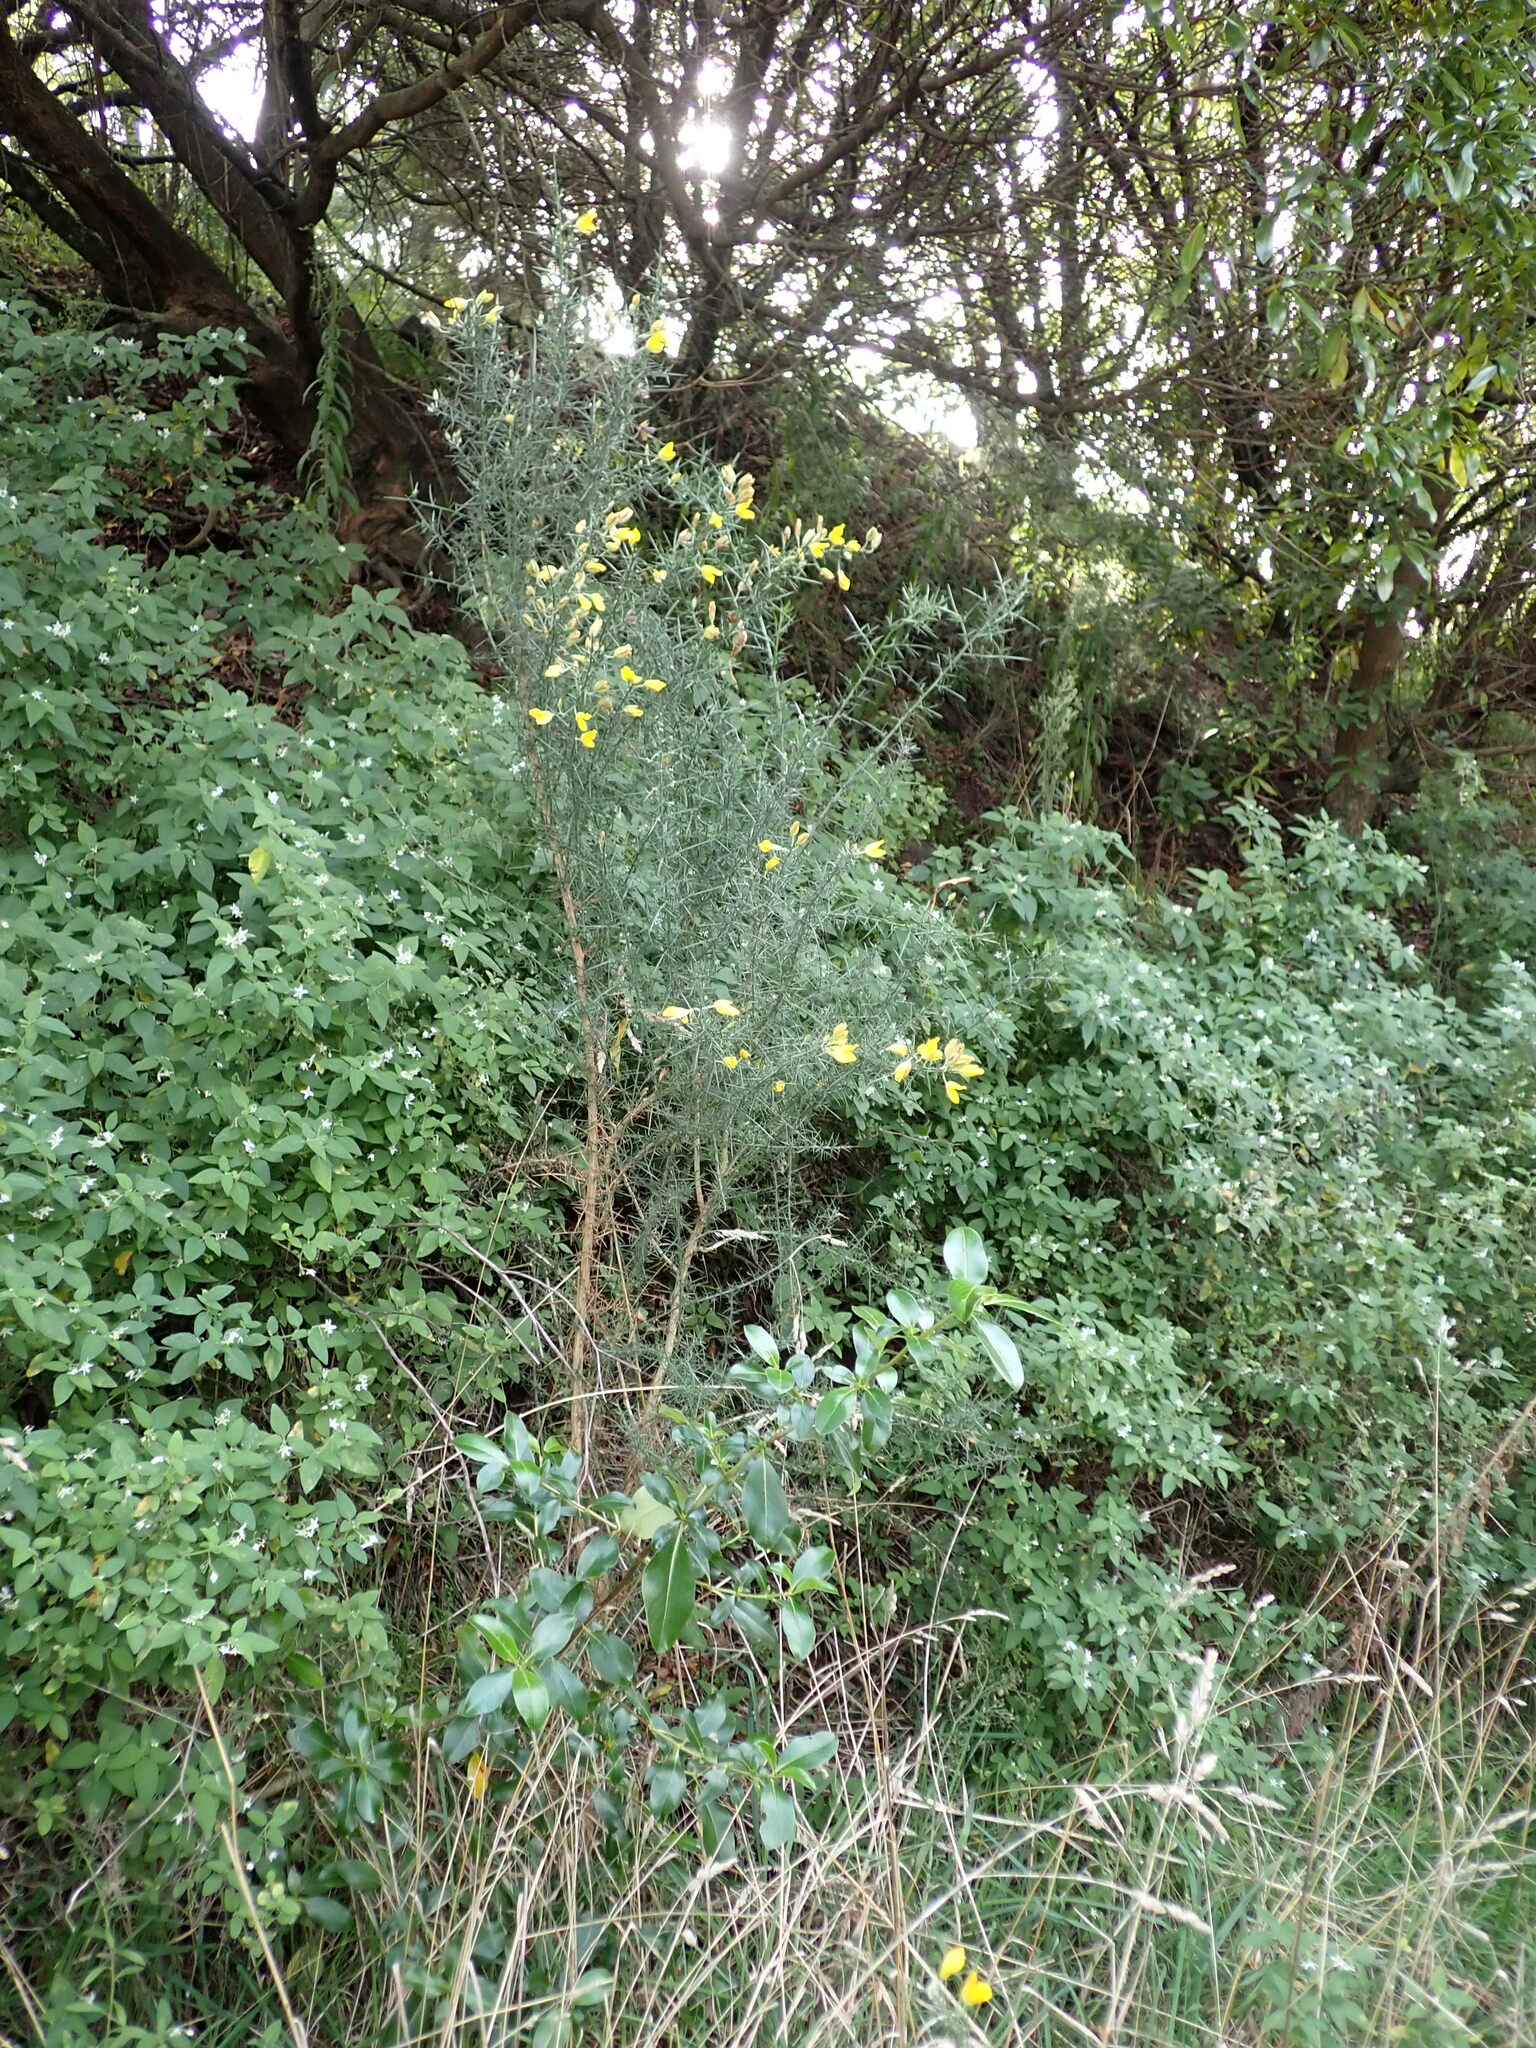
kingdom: Plantae
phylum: Tracheophyta
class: Magnoliopsida
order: Fabales
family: Fabaceae
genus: Ulex
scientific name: Ulex europaeus
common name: Common gorse
